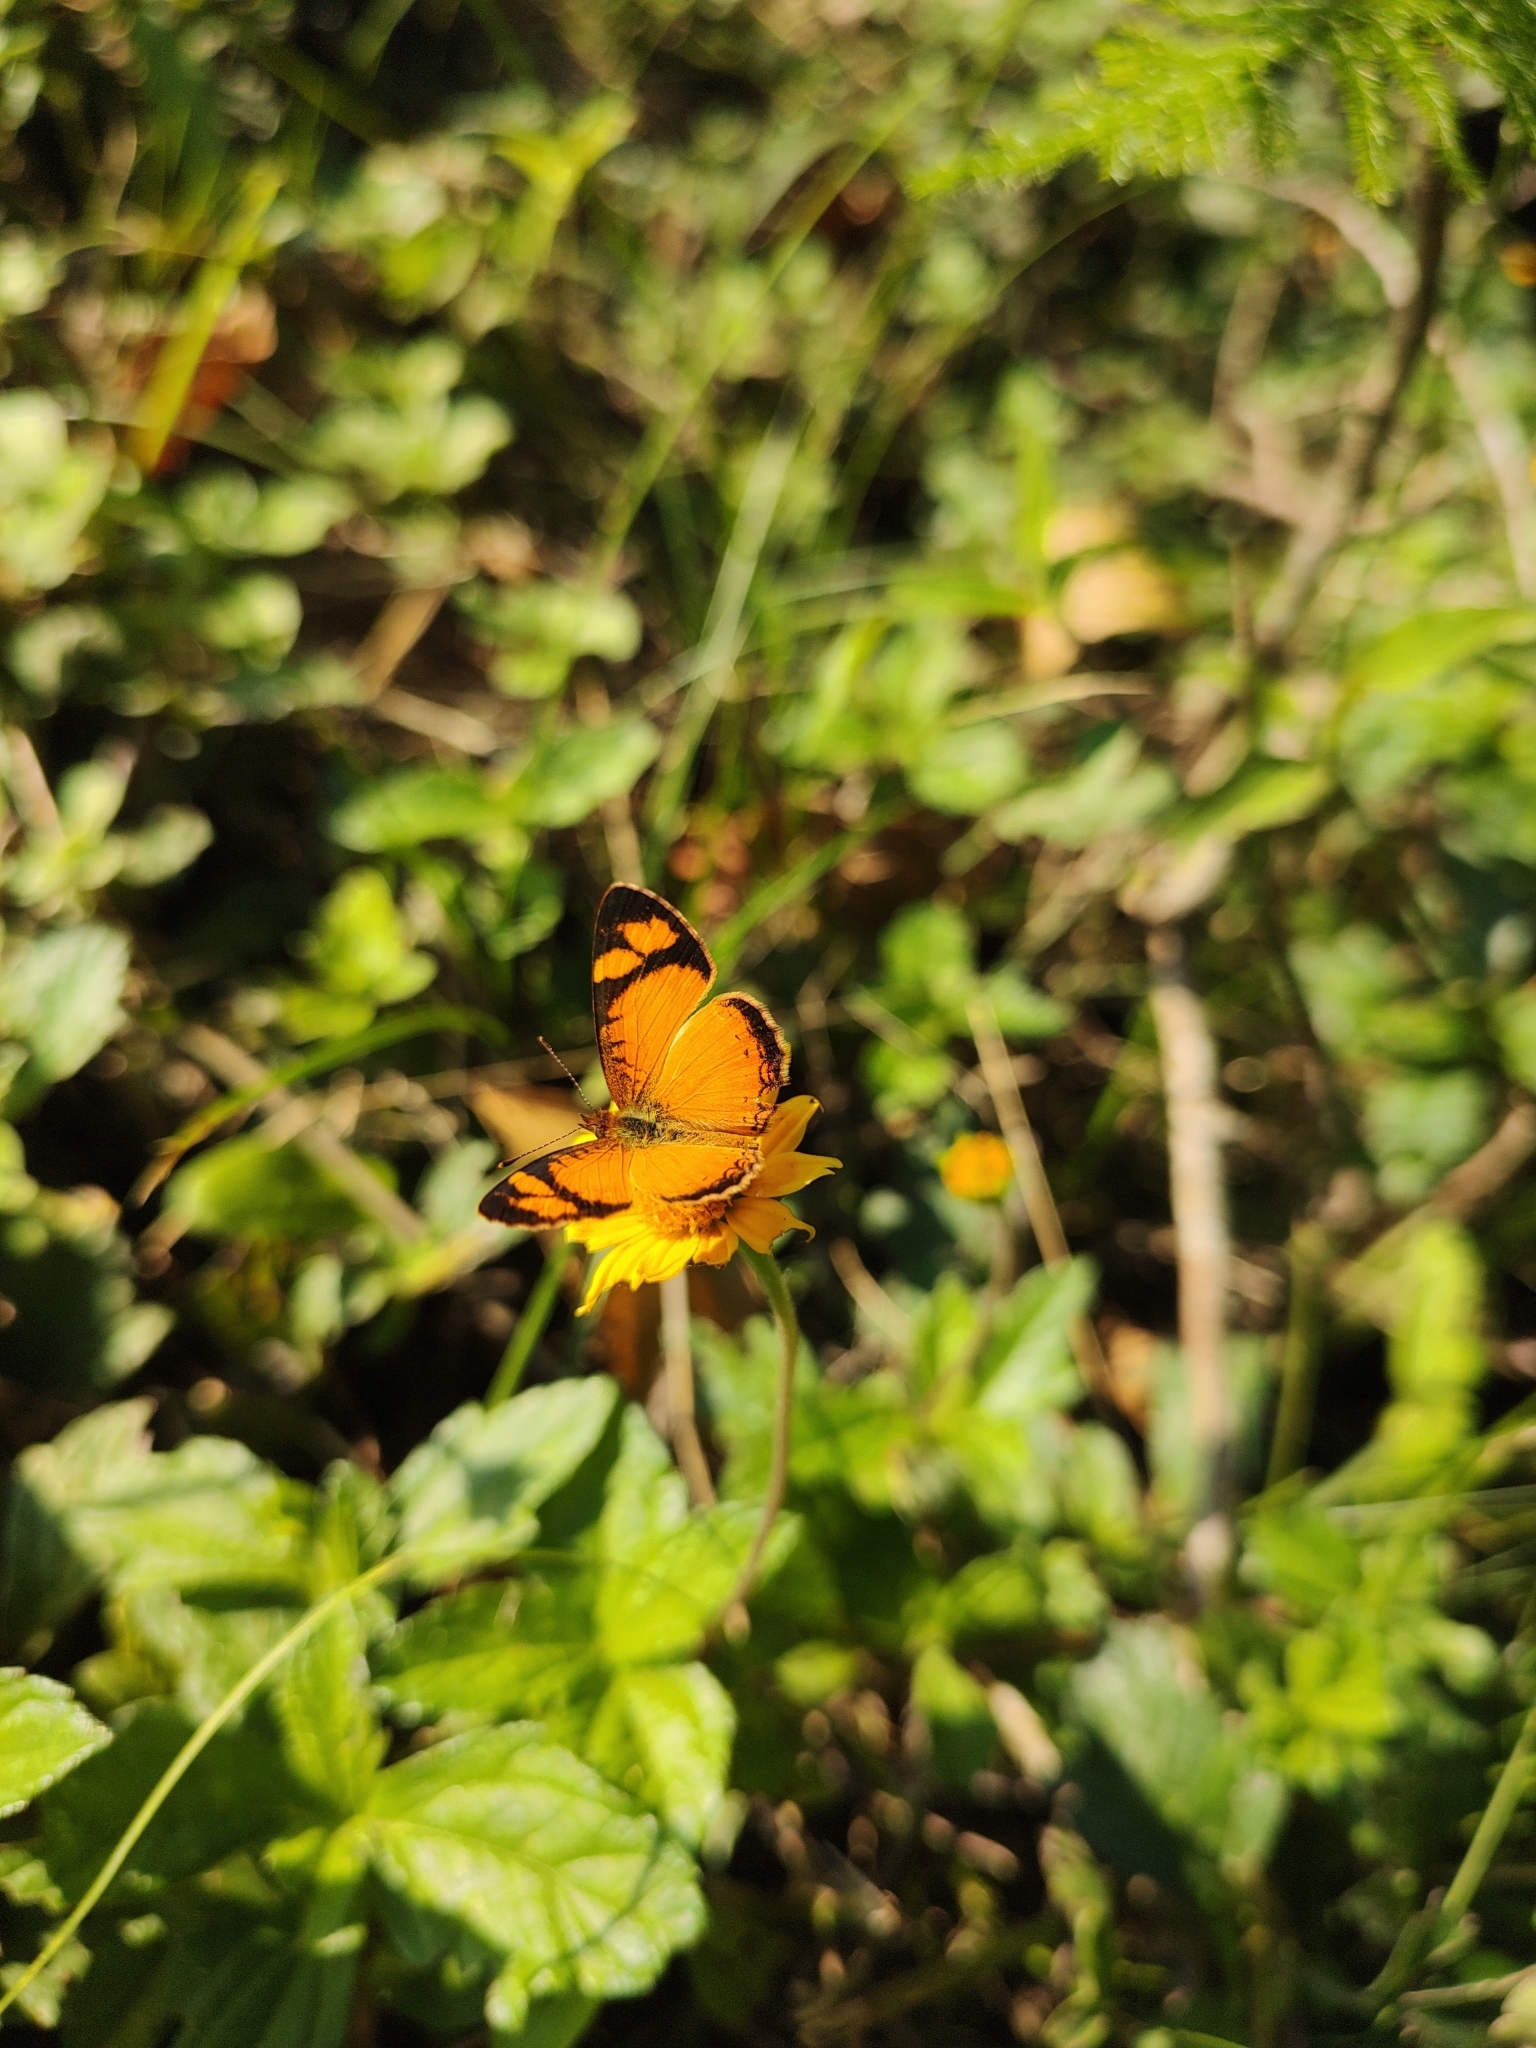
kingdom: Animalia
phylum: Arthropoda
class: Insecta
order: Lepidoptera
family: Nymphalidae
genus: Tegosa
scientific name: Tegosa claudina
